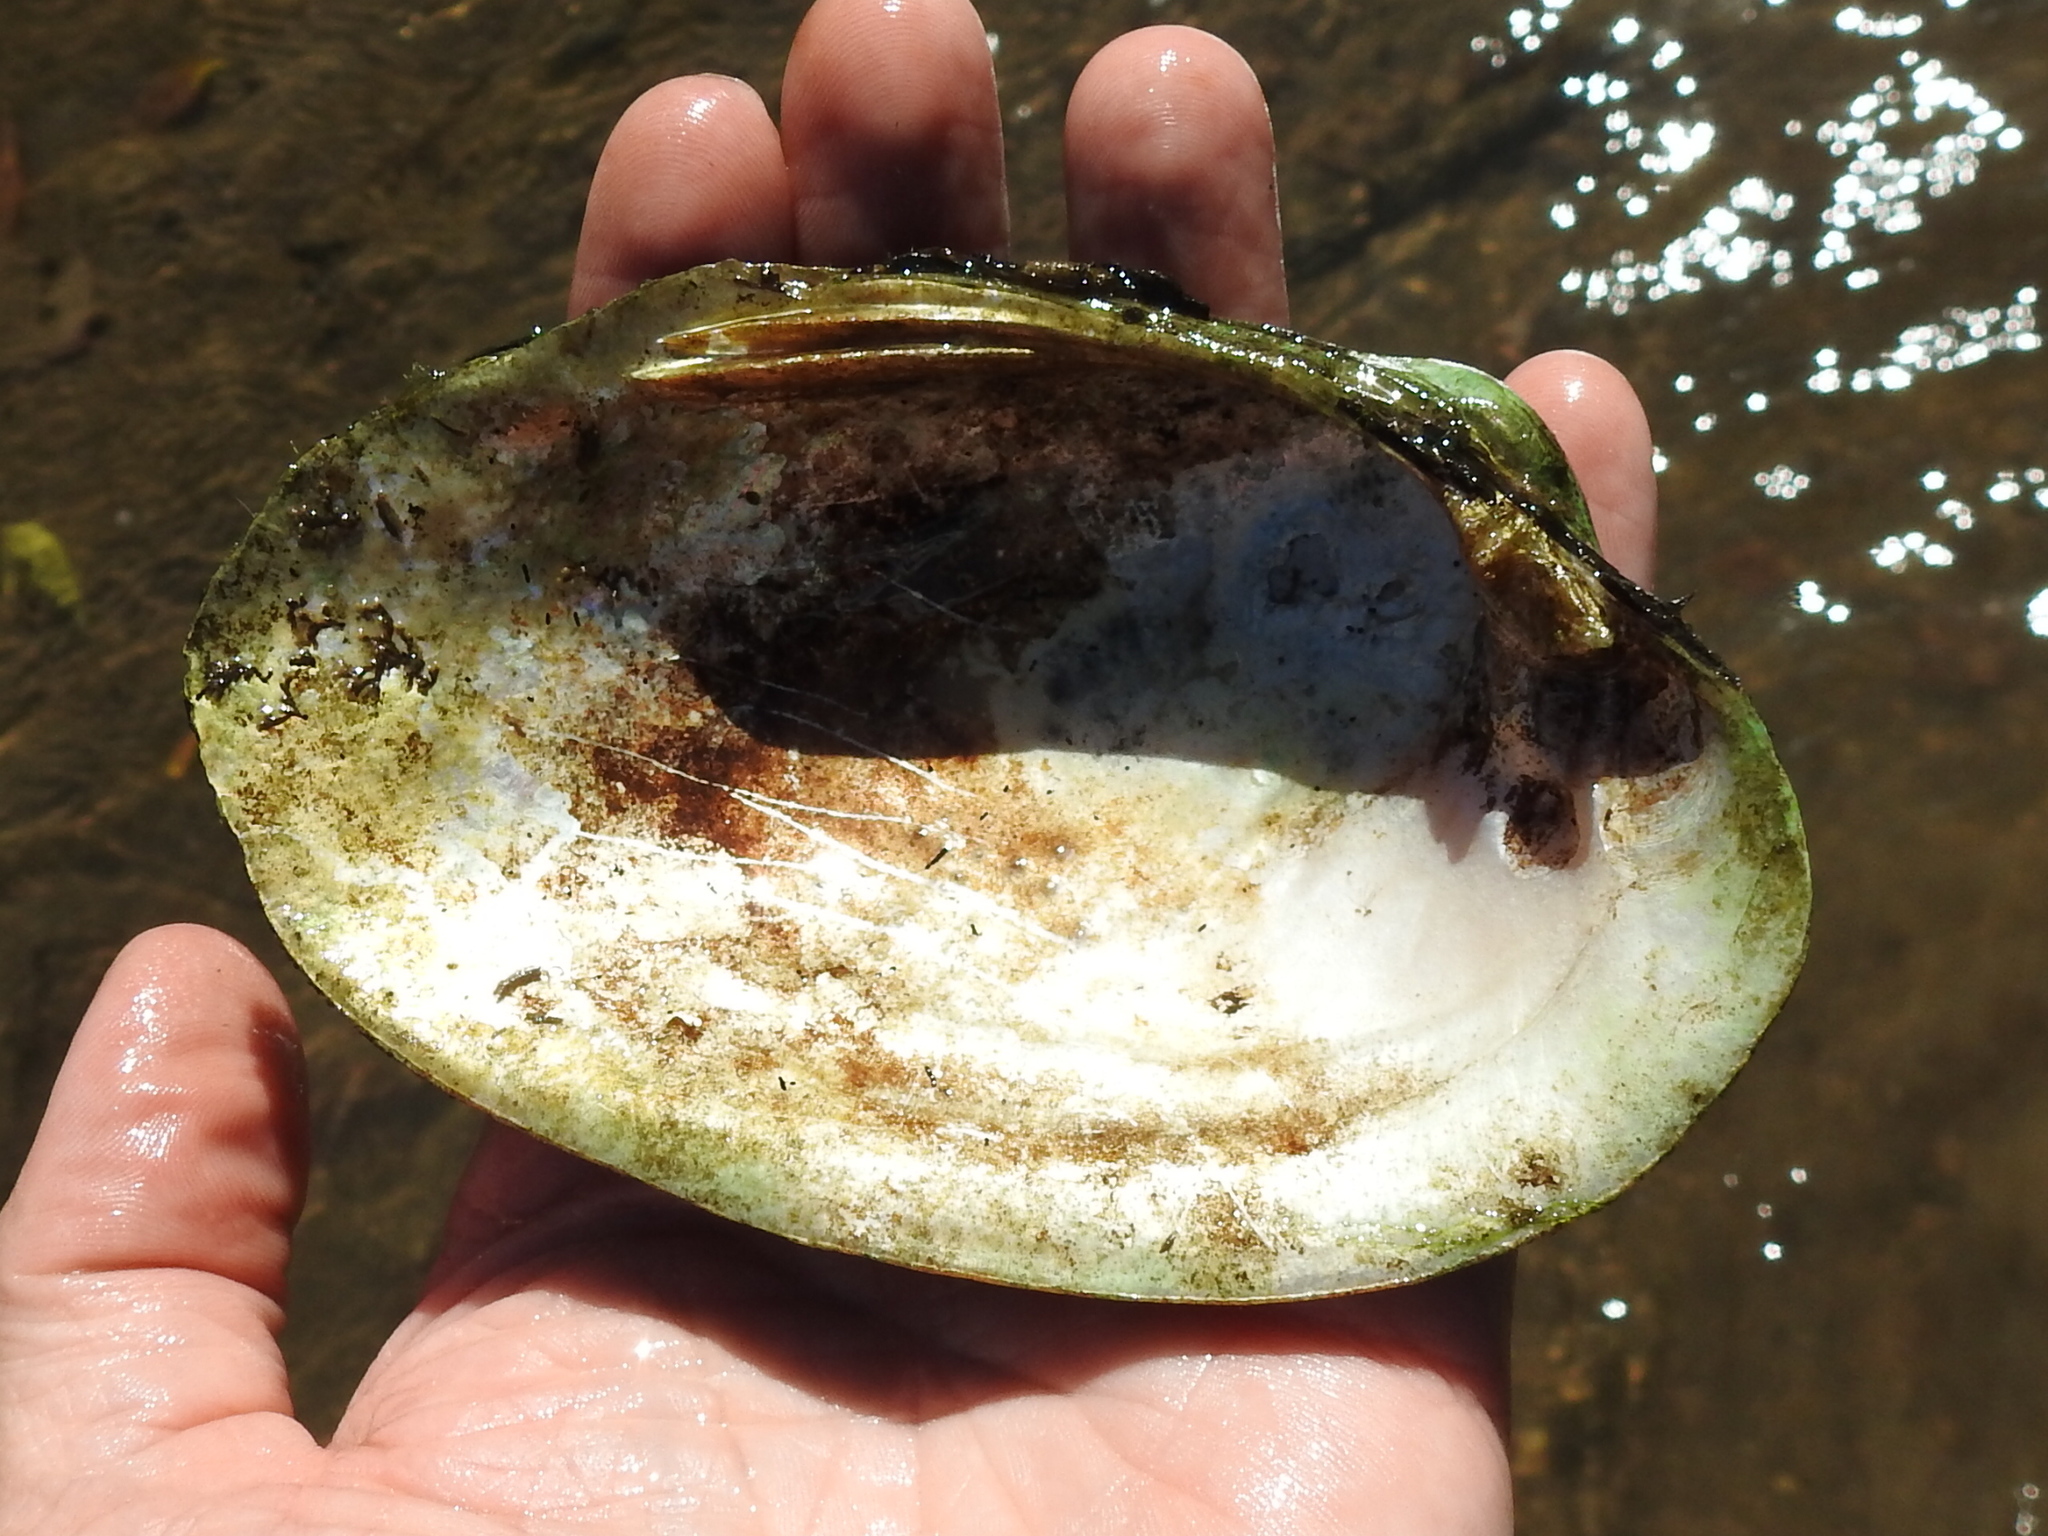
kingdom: Animalia
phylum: Mollusca
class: Bivalvia
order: Unionida
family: Unionidae
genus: Cyrtonaias
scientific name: Cyrtonaias tampicoensis
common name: Tampico pearlymussel
